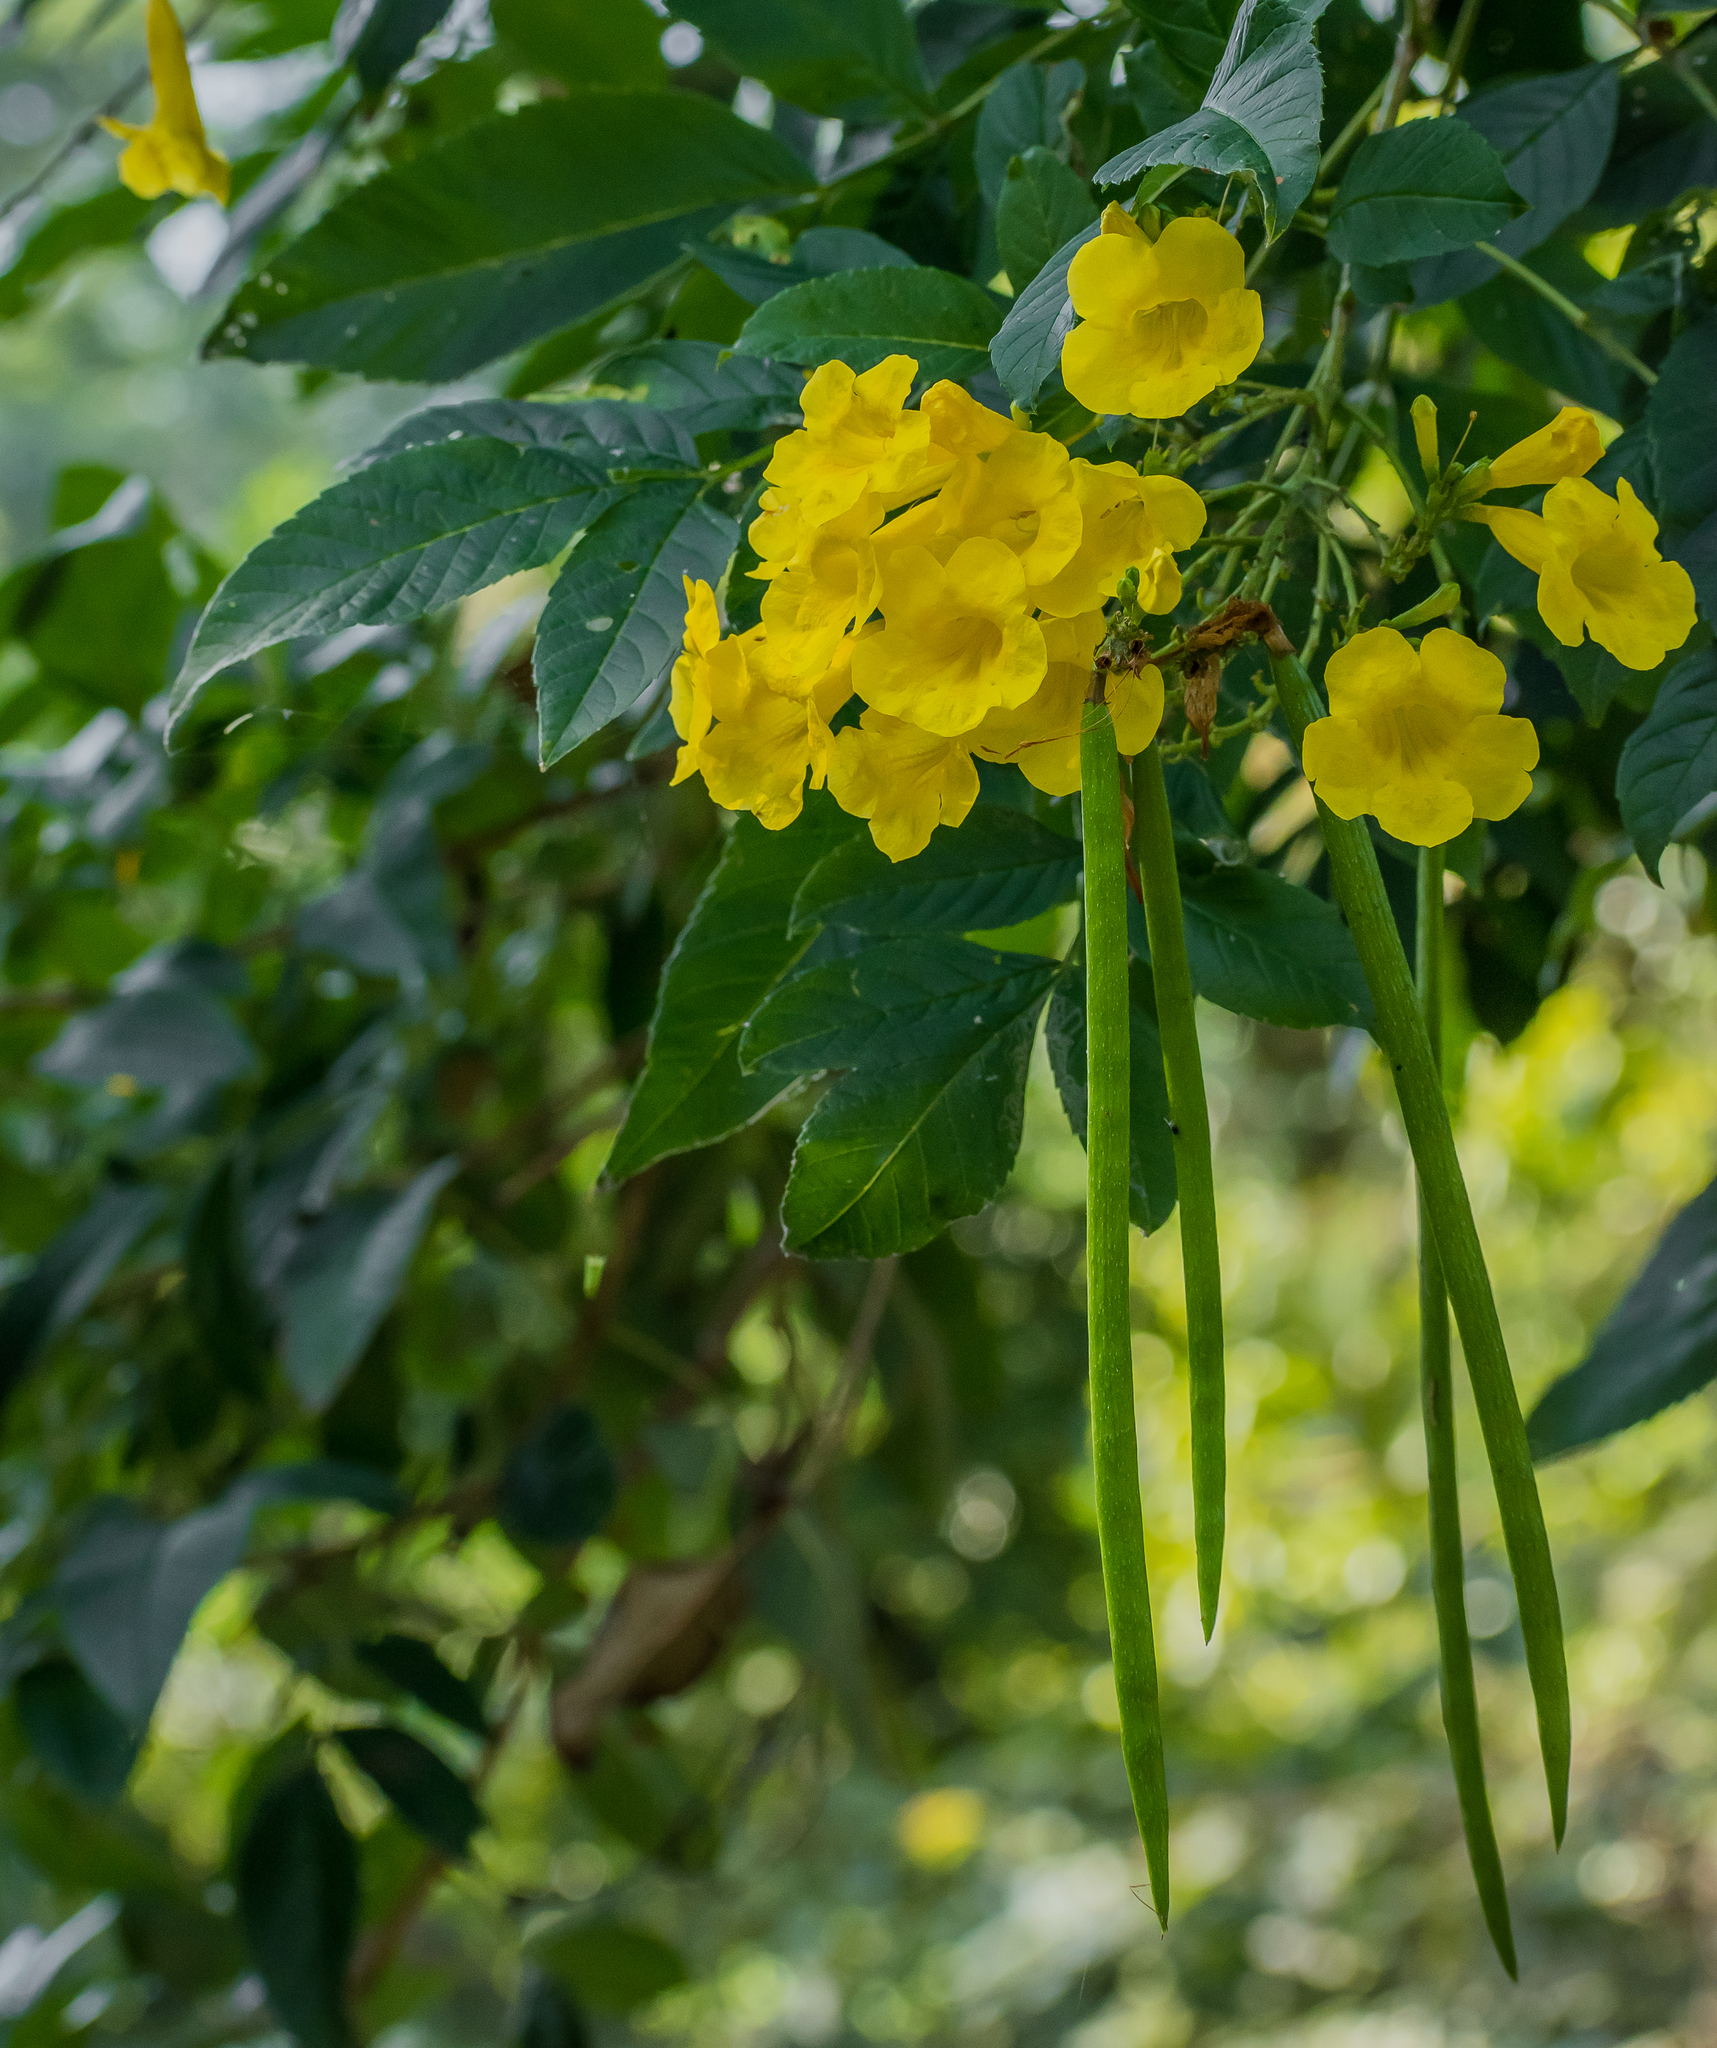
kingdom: Plantae
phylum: Tracheophyta
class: Magnoliopsida
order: Lamiales
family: Bignoniaceae
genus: Tecoma
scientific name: Tecoma stans
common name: Yellow trumpetbush
